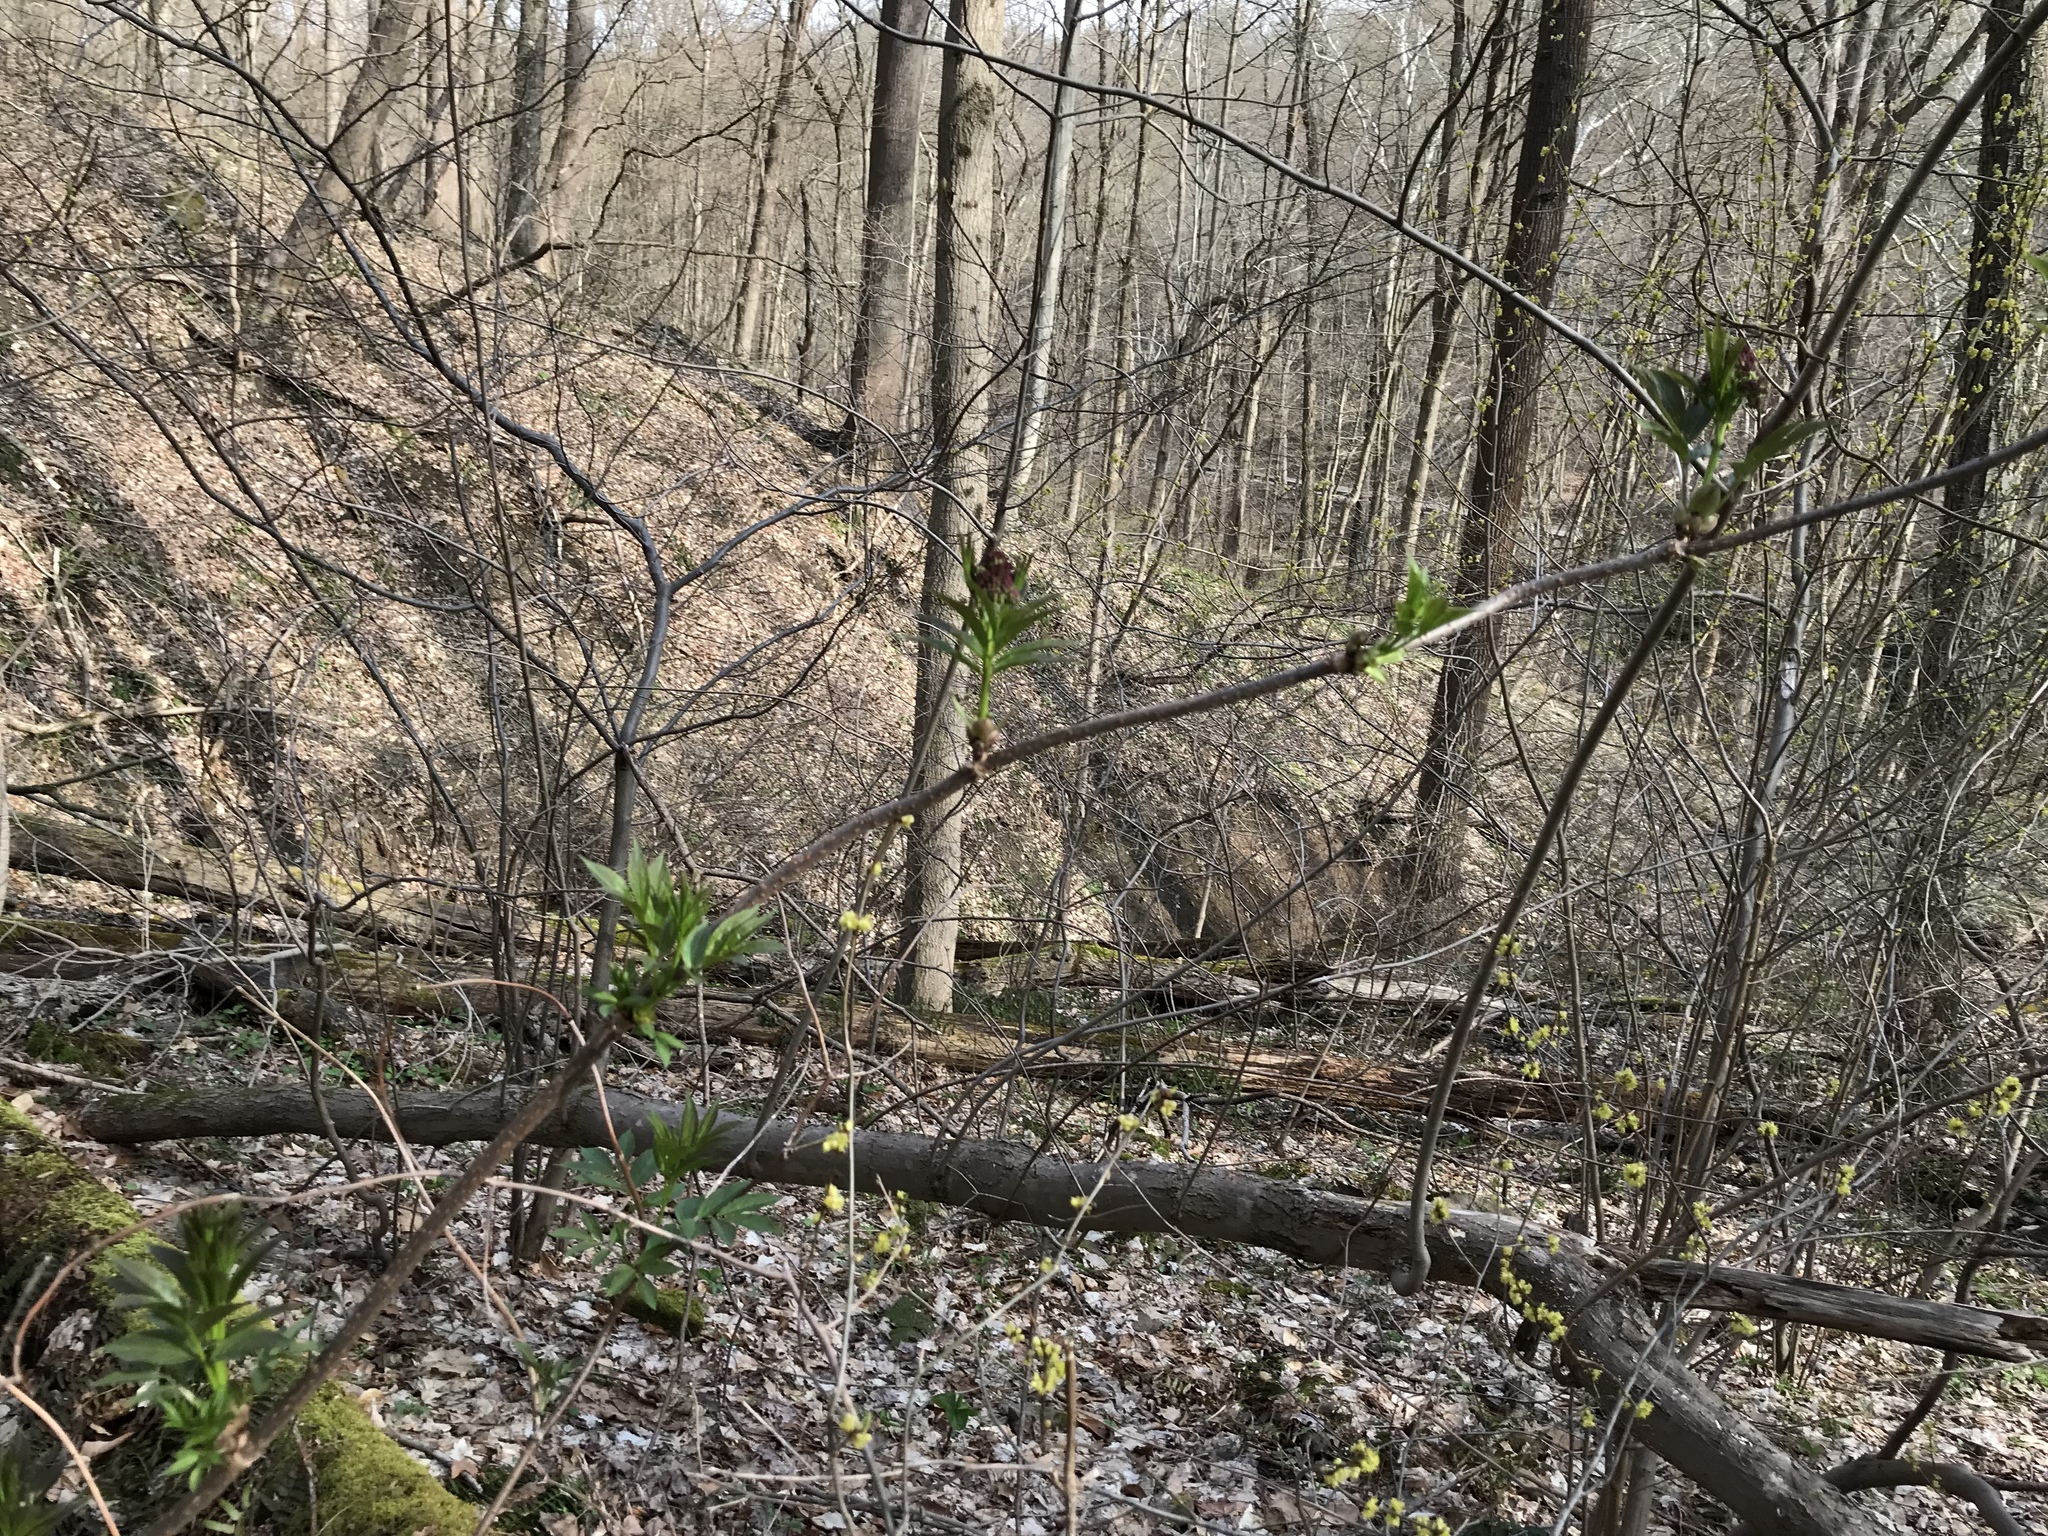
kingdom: Plantae
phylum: Tracheophyta
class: Magnoliopsida
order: Dipsacales
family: Viburnaceae
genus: Sambucus
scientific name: Sambucus racemosa
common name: Red-berried elder
